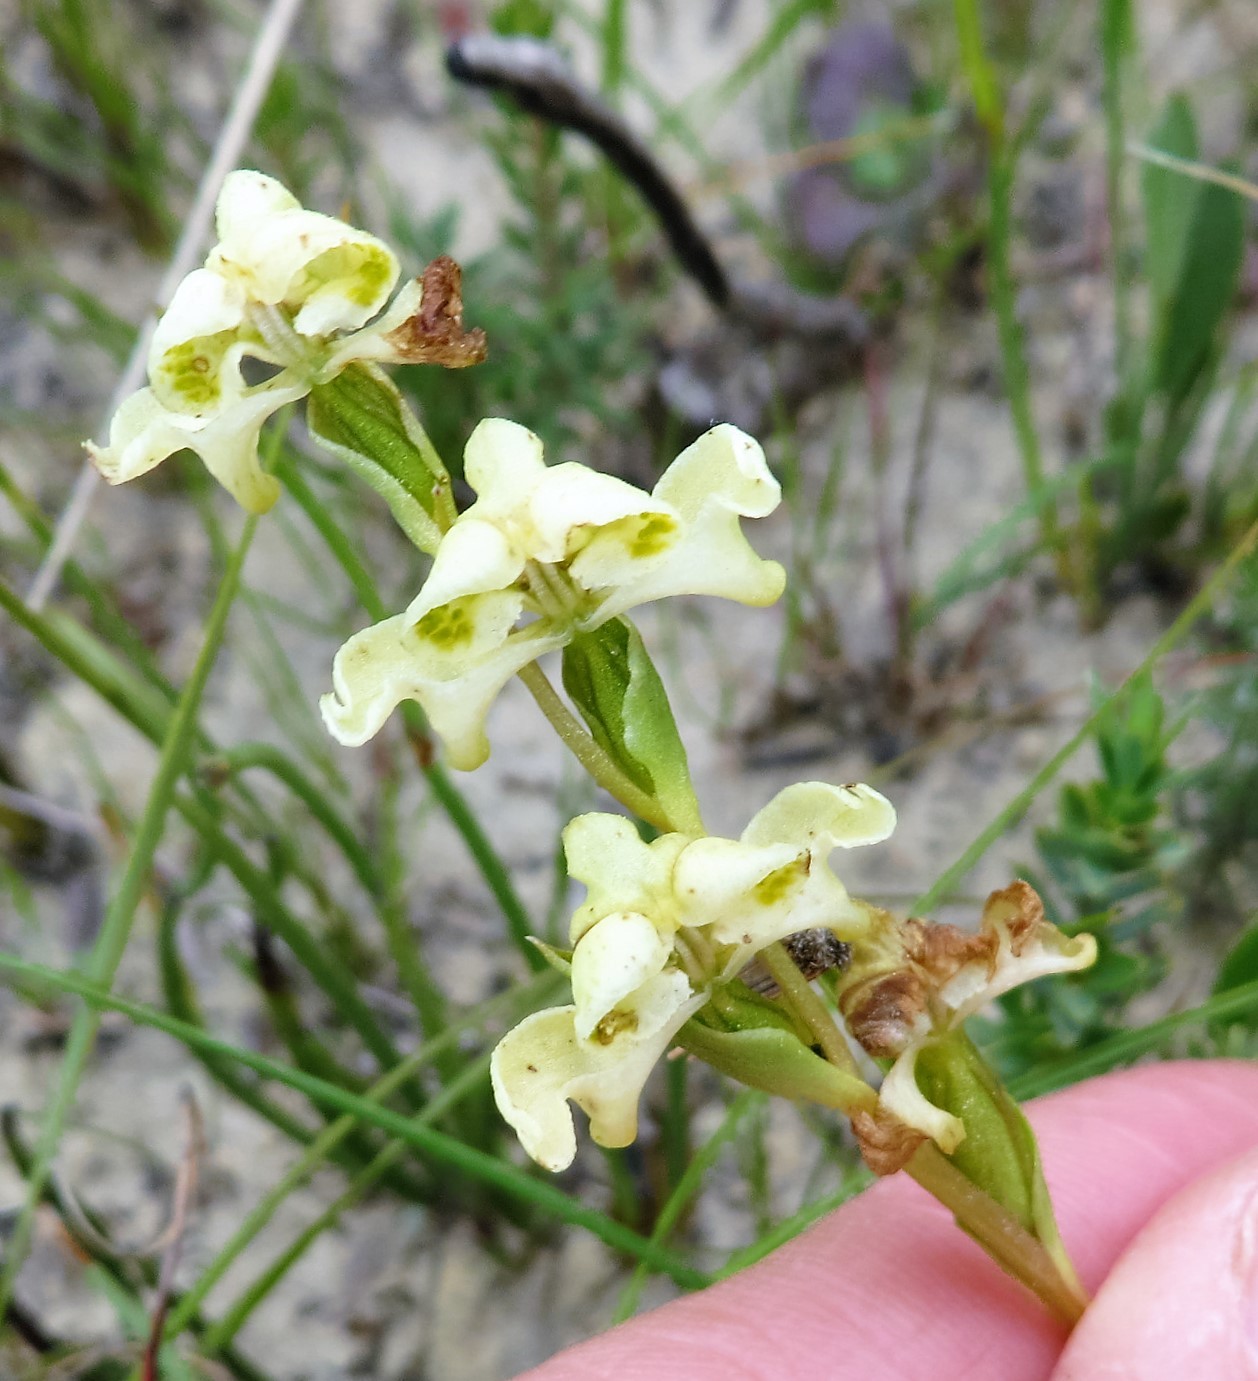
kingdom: Plantae
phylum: Tracheophyta
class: Liliopsida
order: Asparagales
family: Orchidaceae
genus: Disperis
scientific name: Disperis circumflexa
